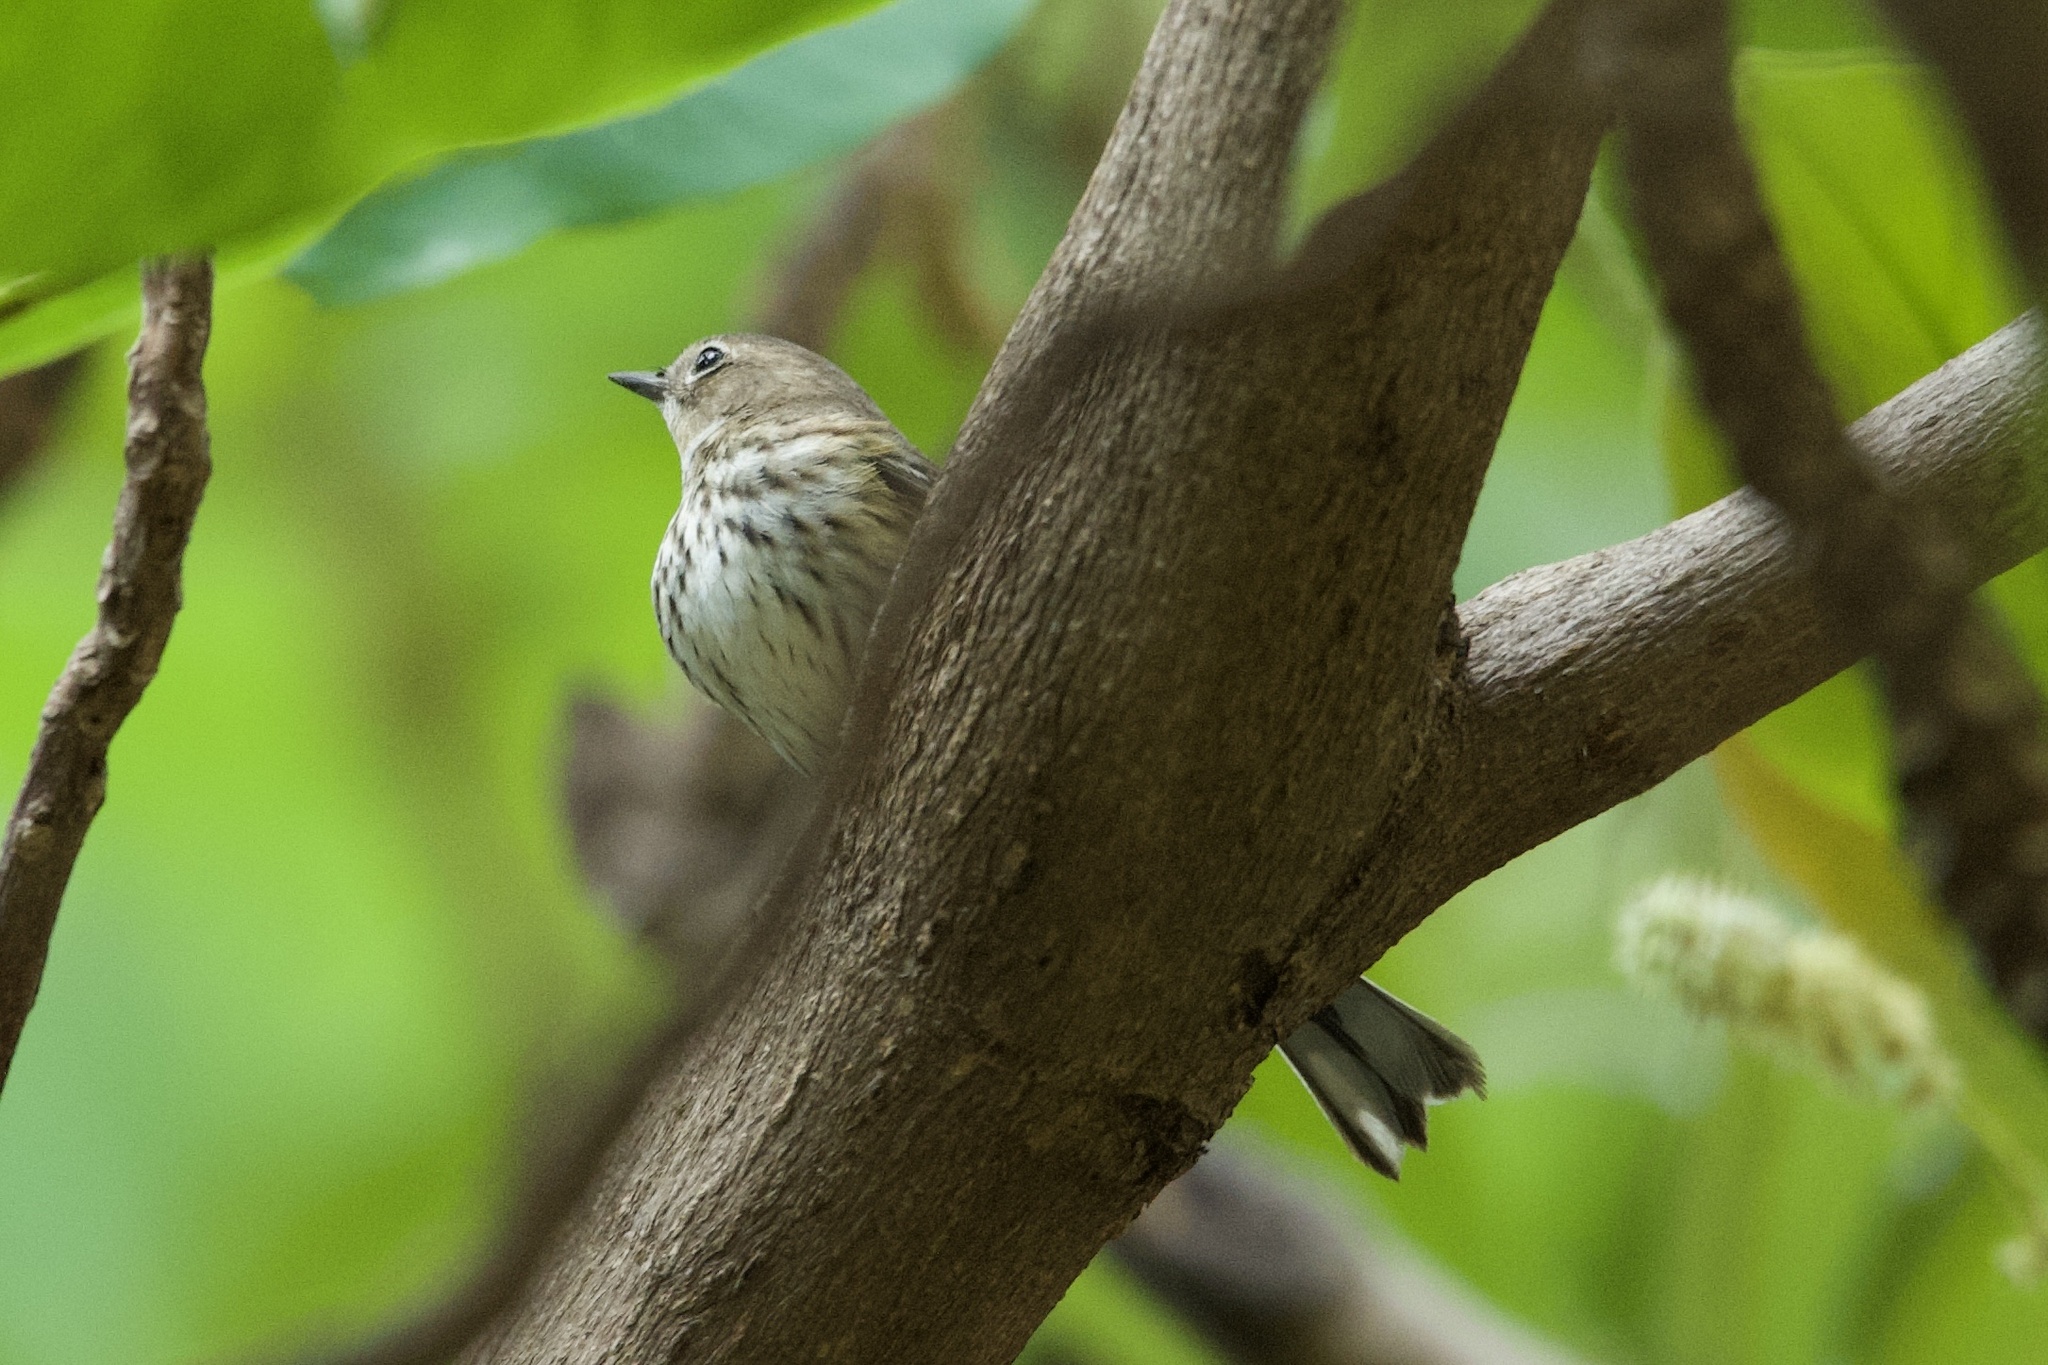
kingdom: Animalia
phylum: Chordata
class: Aves
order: Passeriformes
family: Parulidae
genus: Setophaga
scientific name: Setophaga coronata
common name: Myrtle warbler
